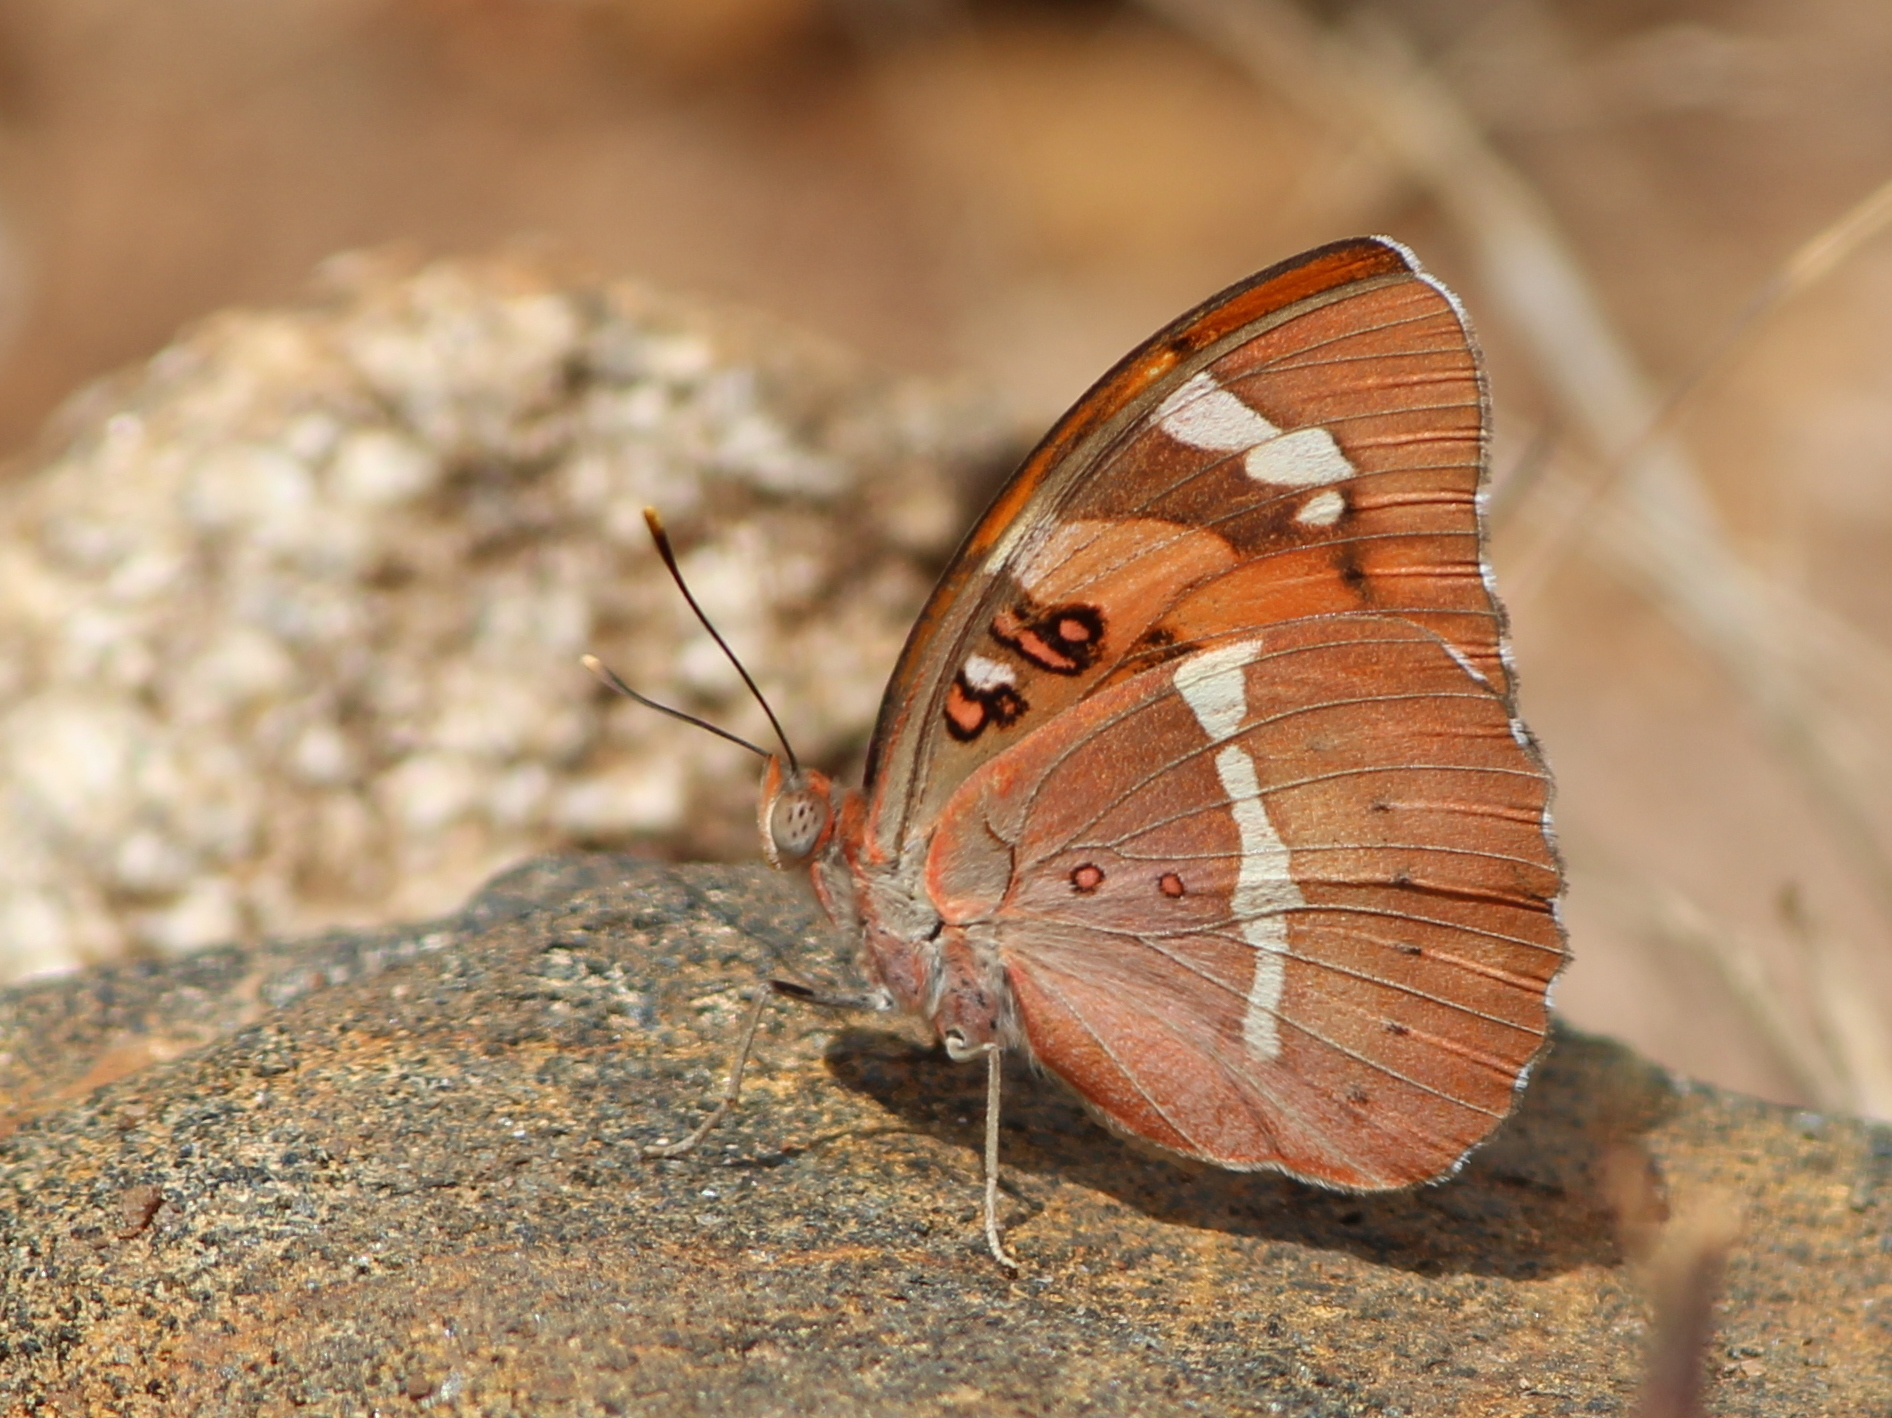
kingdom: Animalia
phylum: Arthropoda
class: Insecta
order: Lepidoptera
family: Nymphalidae
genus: Euthalia
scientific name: Euthalia nais
